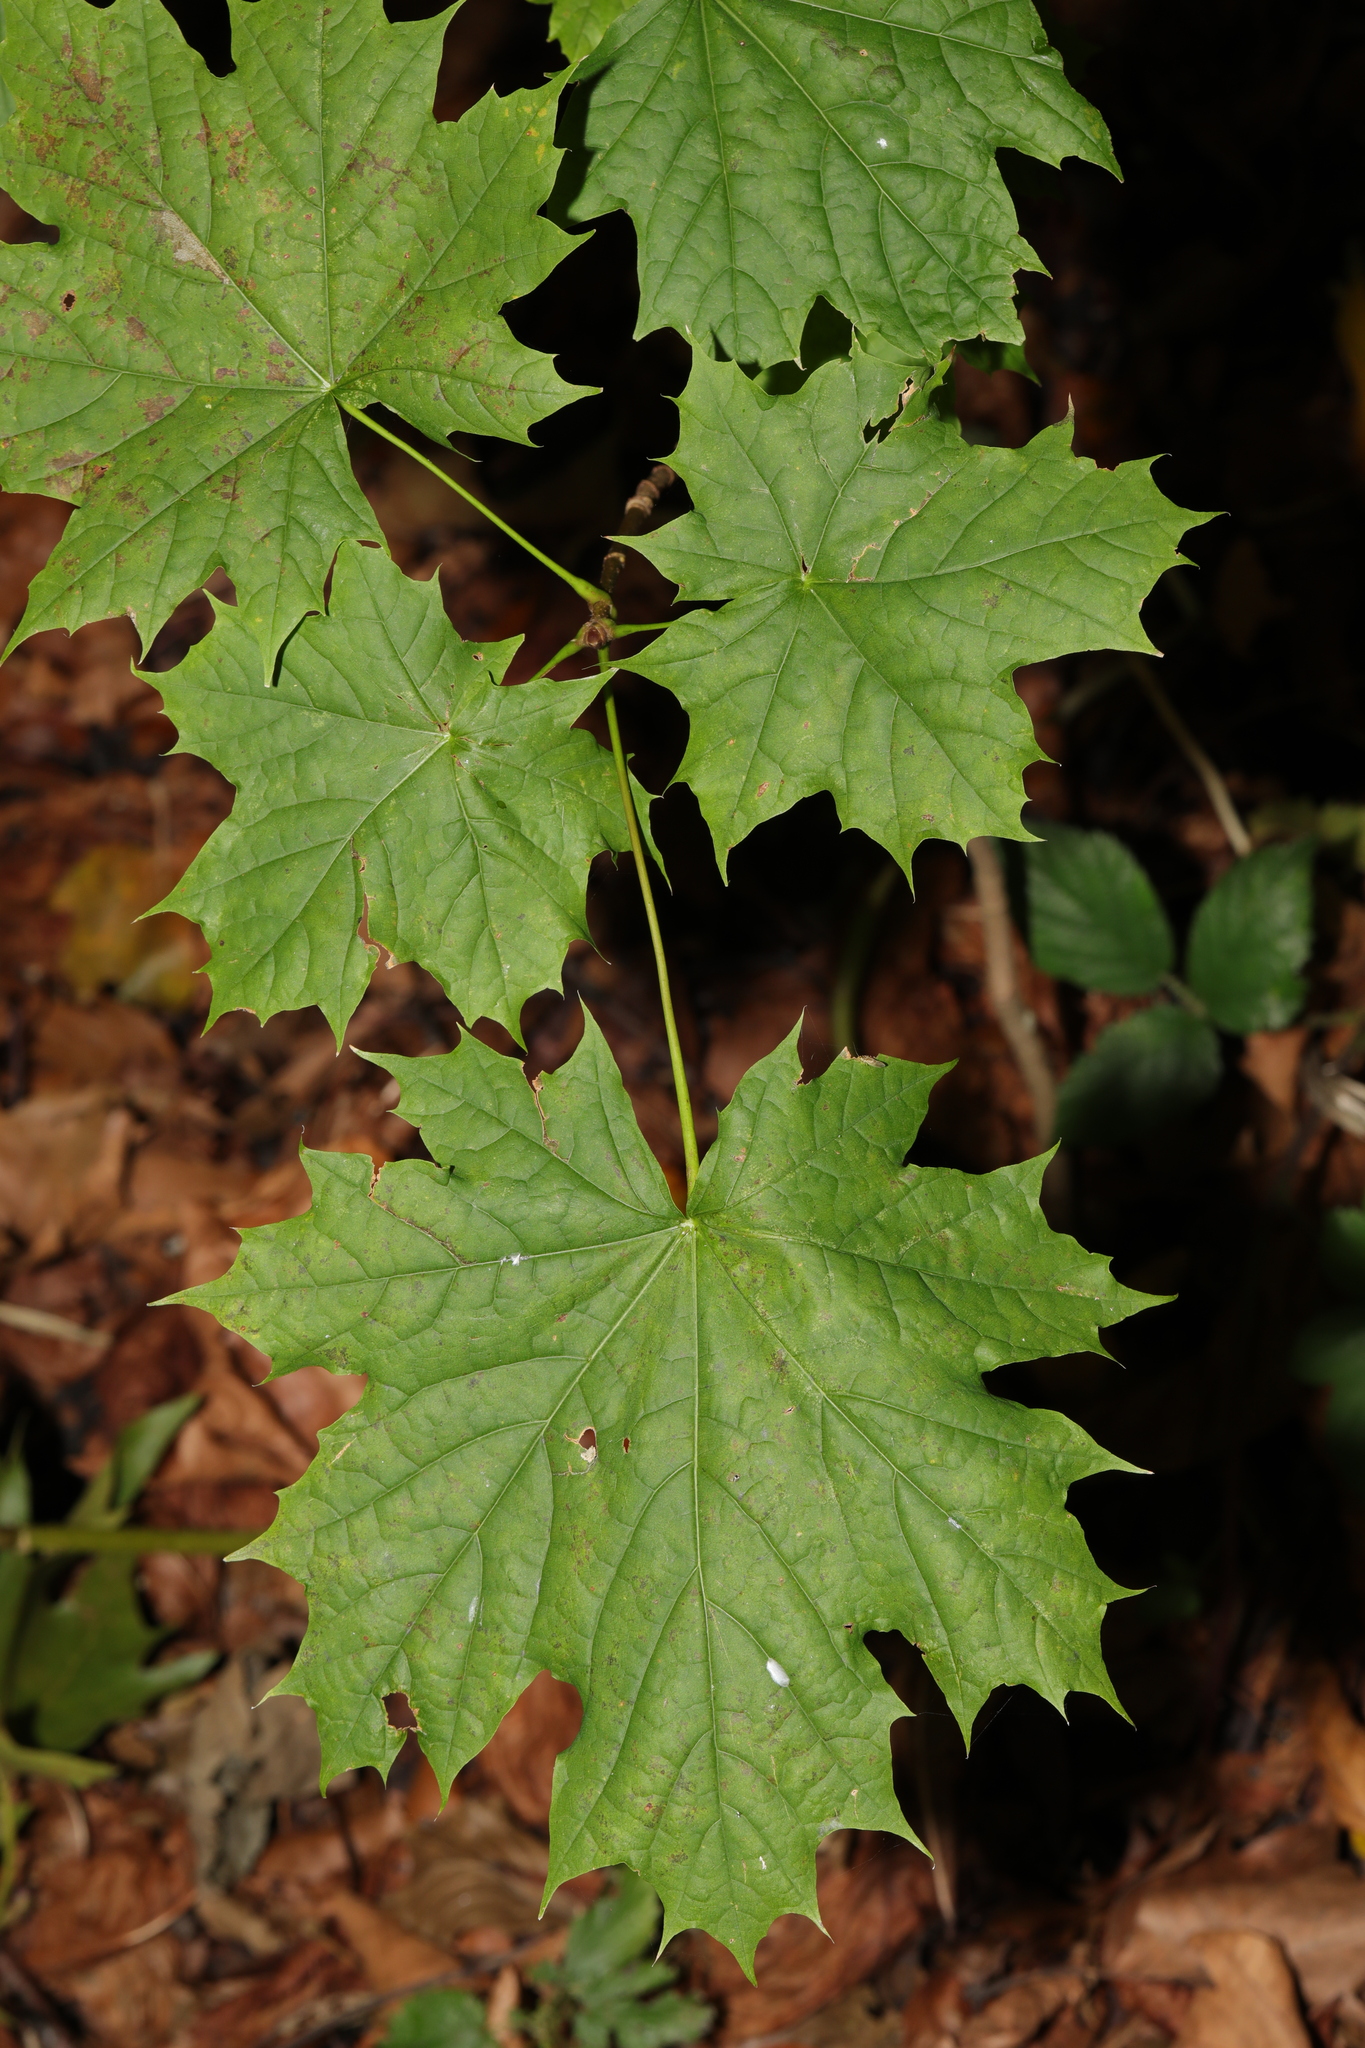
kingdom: Plantae
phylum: Tracheophyta
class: Magnoliopsida
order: Sapindales
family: Sapindaceae
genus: Acer
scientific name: Acer platanoides
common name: Norway maple
